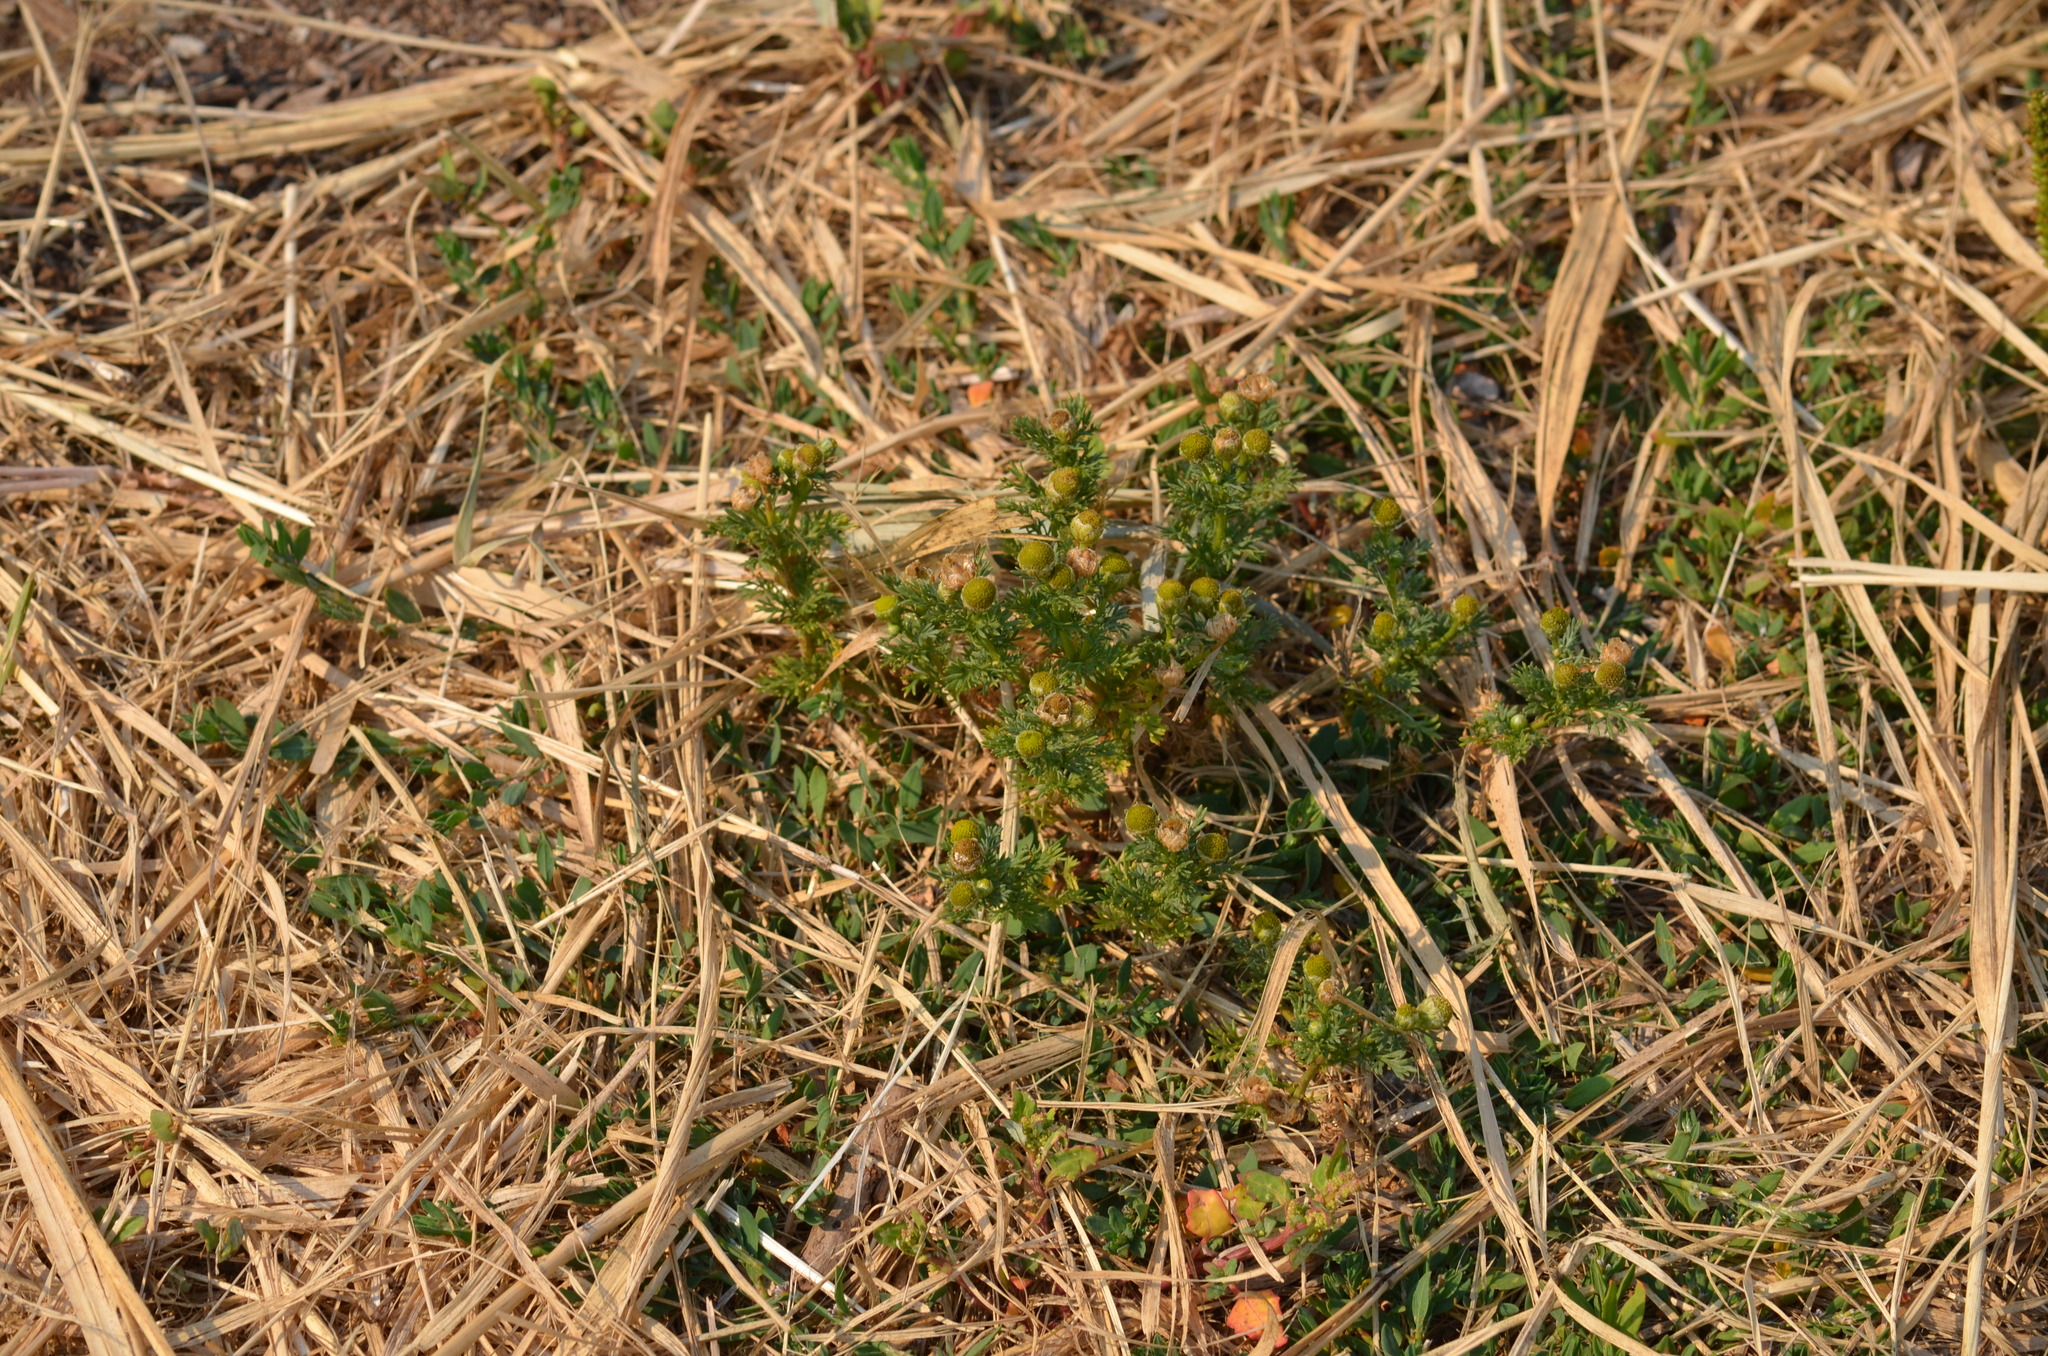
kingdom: Plantae
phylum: Tracheophyta
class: Magnoliopsida
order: Asterales
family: Asteraceae
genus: Matricaria
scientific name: Matricaria discoidea
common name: Disc mayweed
